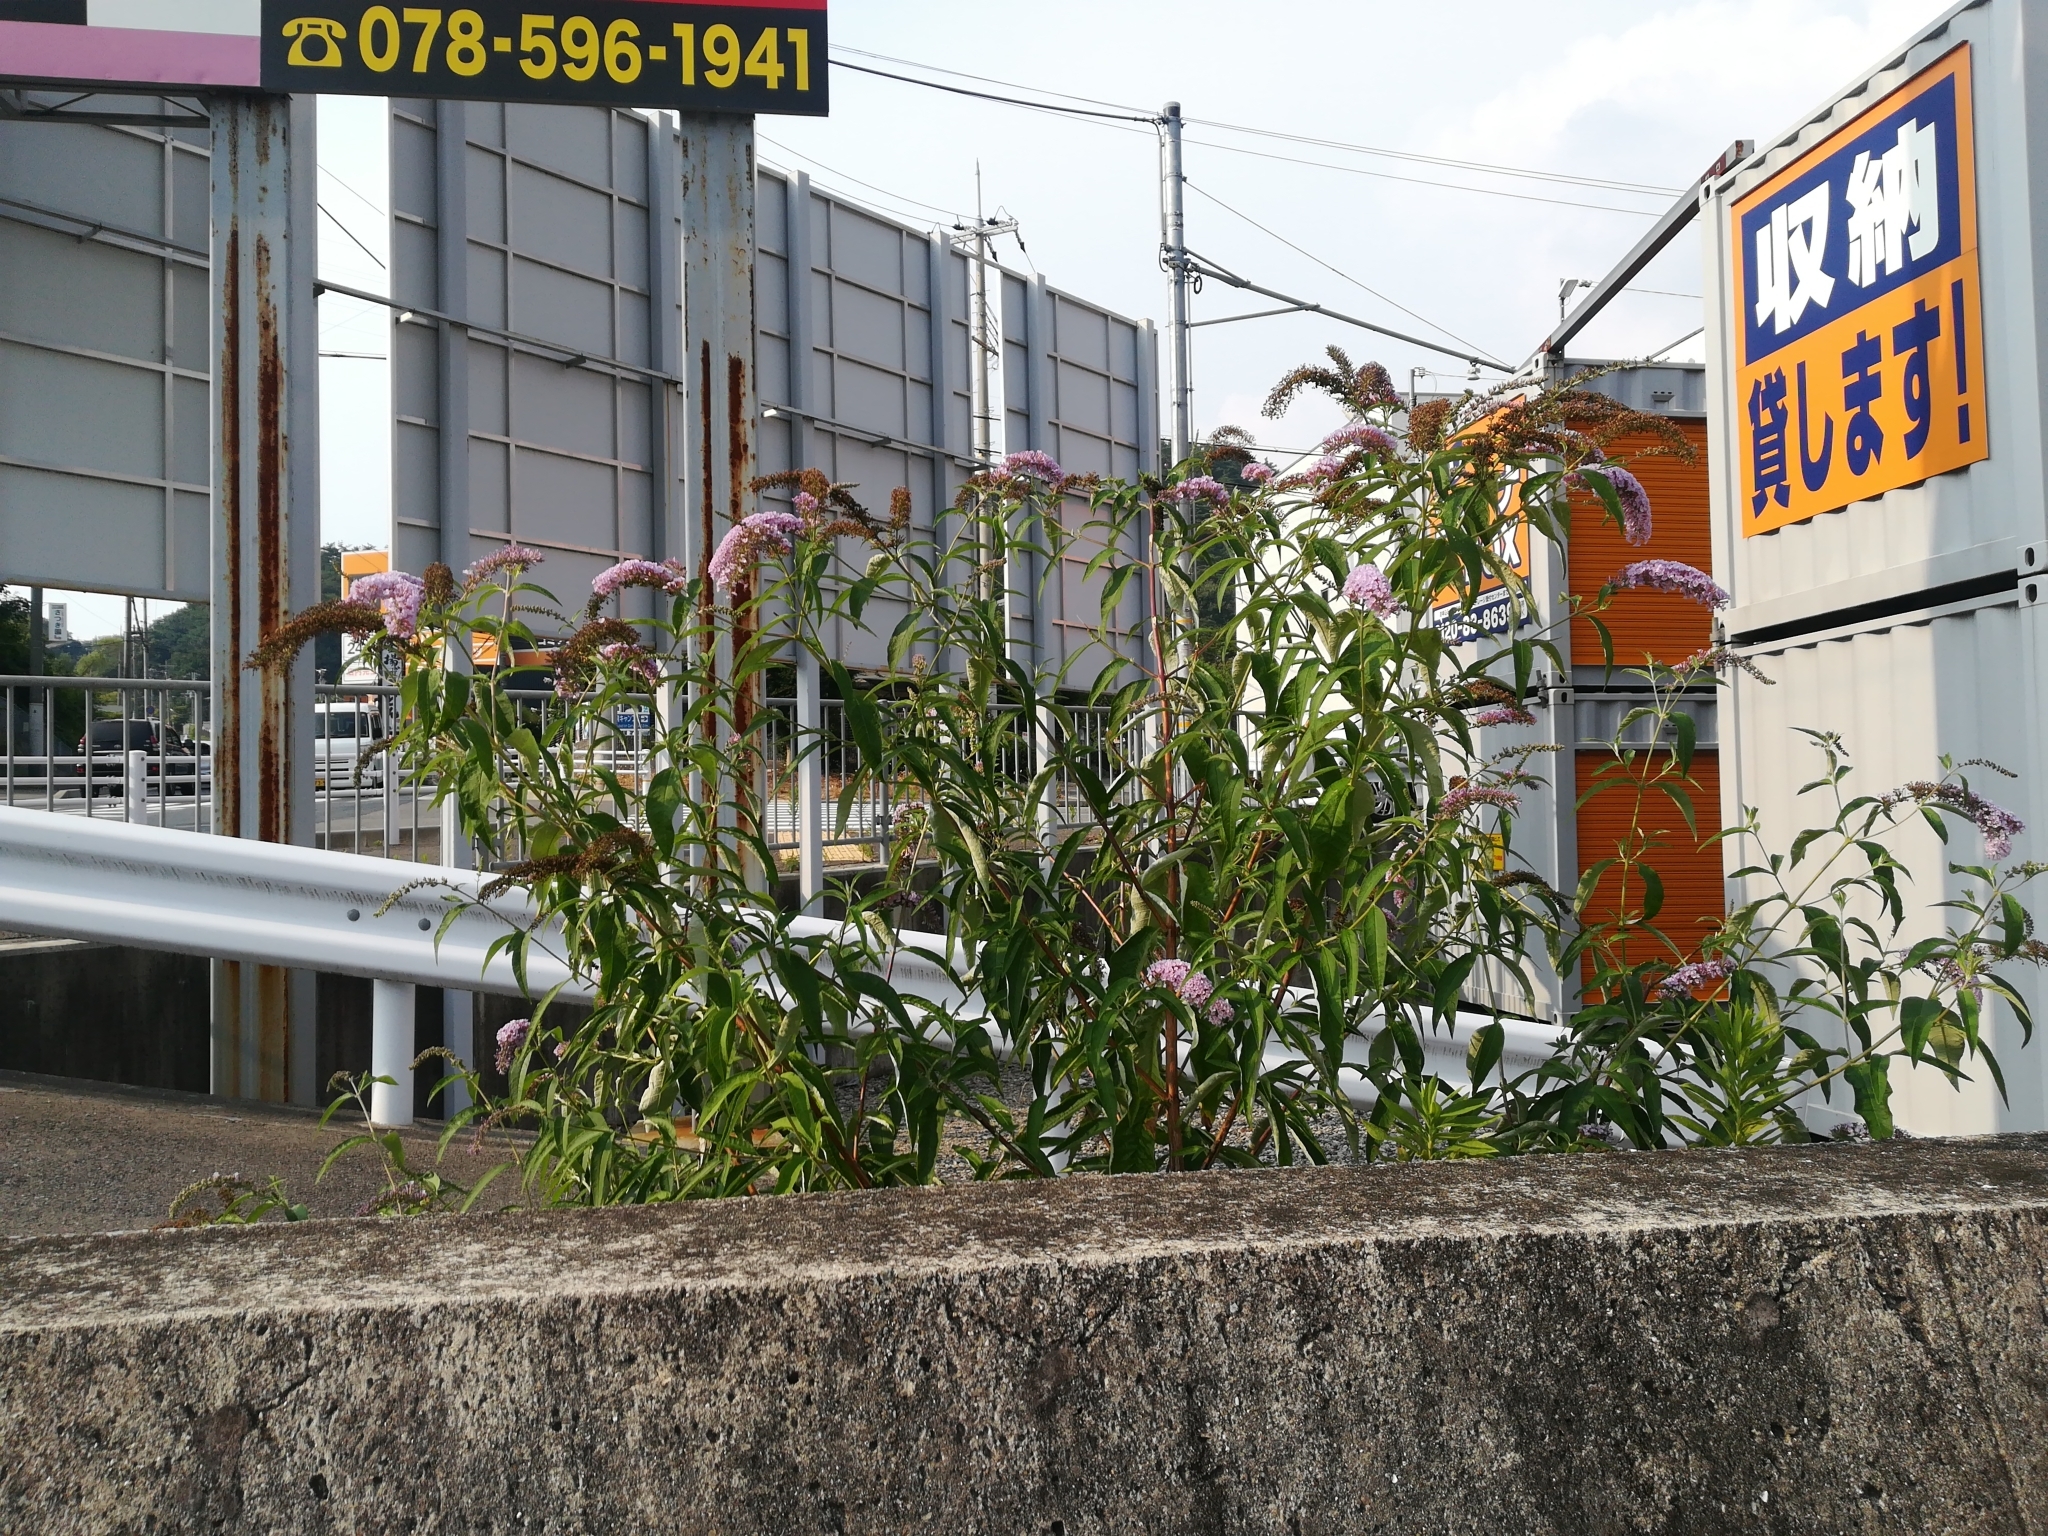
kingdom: Plantae
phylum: Tracheophyta
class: Magnoliopsida
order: Lamiales
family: Scrophulariaceae
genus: Buddleja
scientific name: Buddleja davidii
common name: Butterfly-bush
